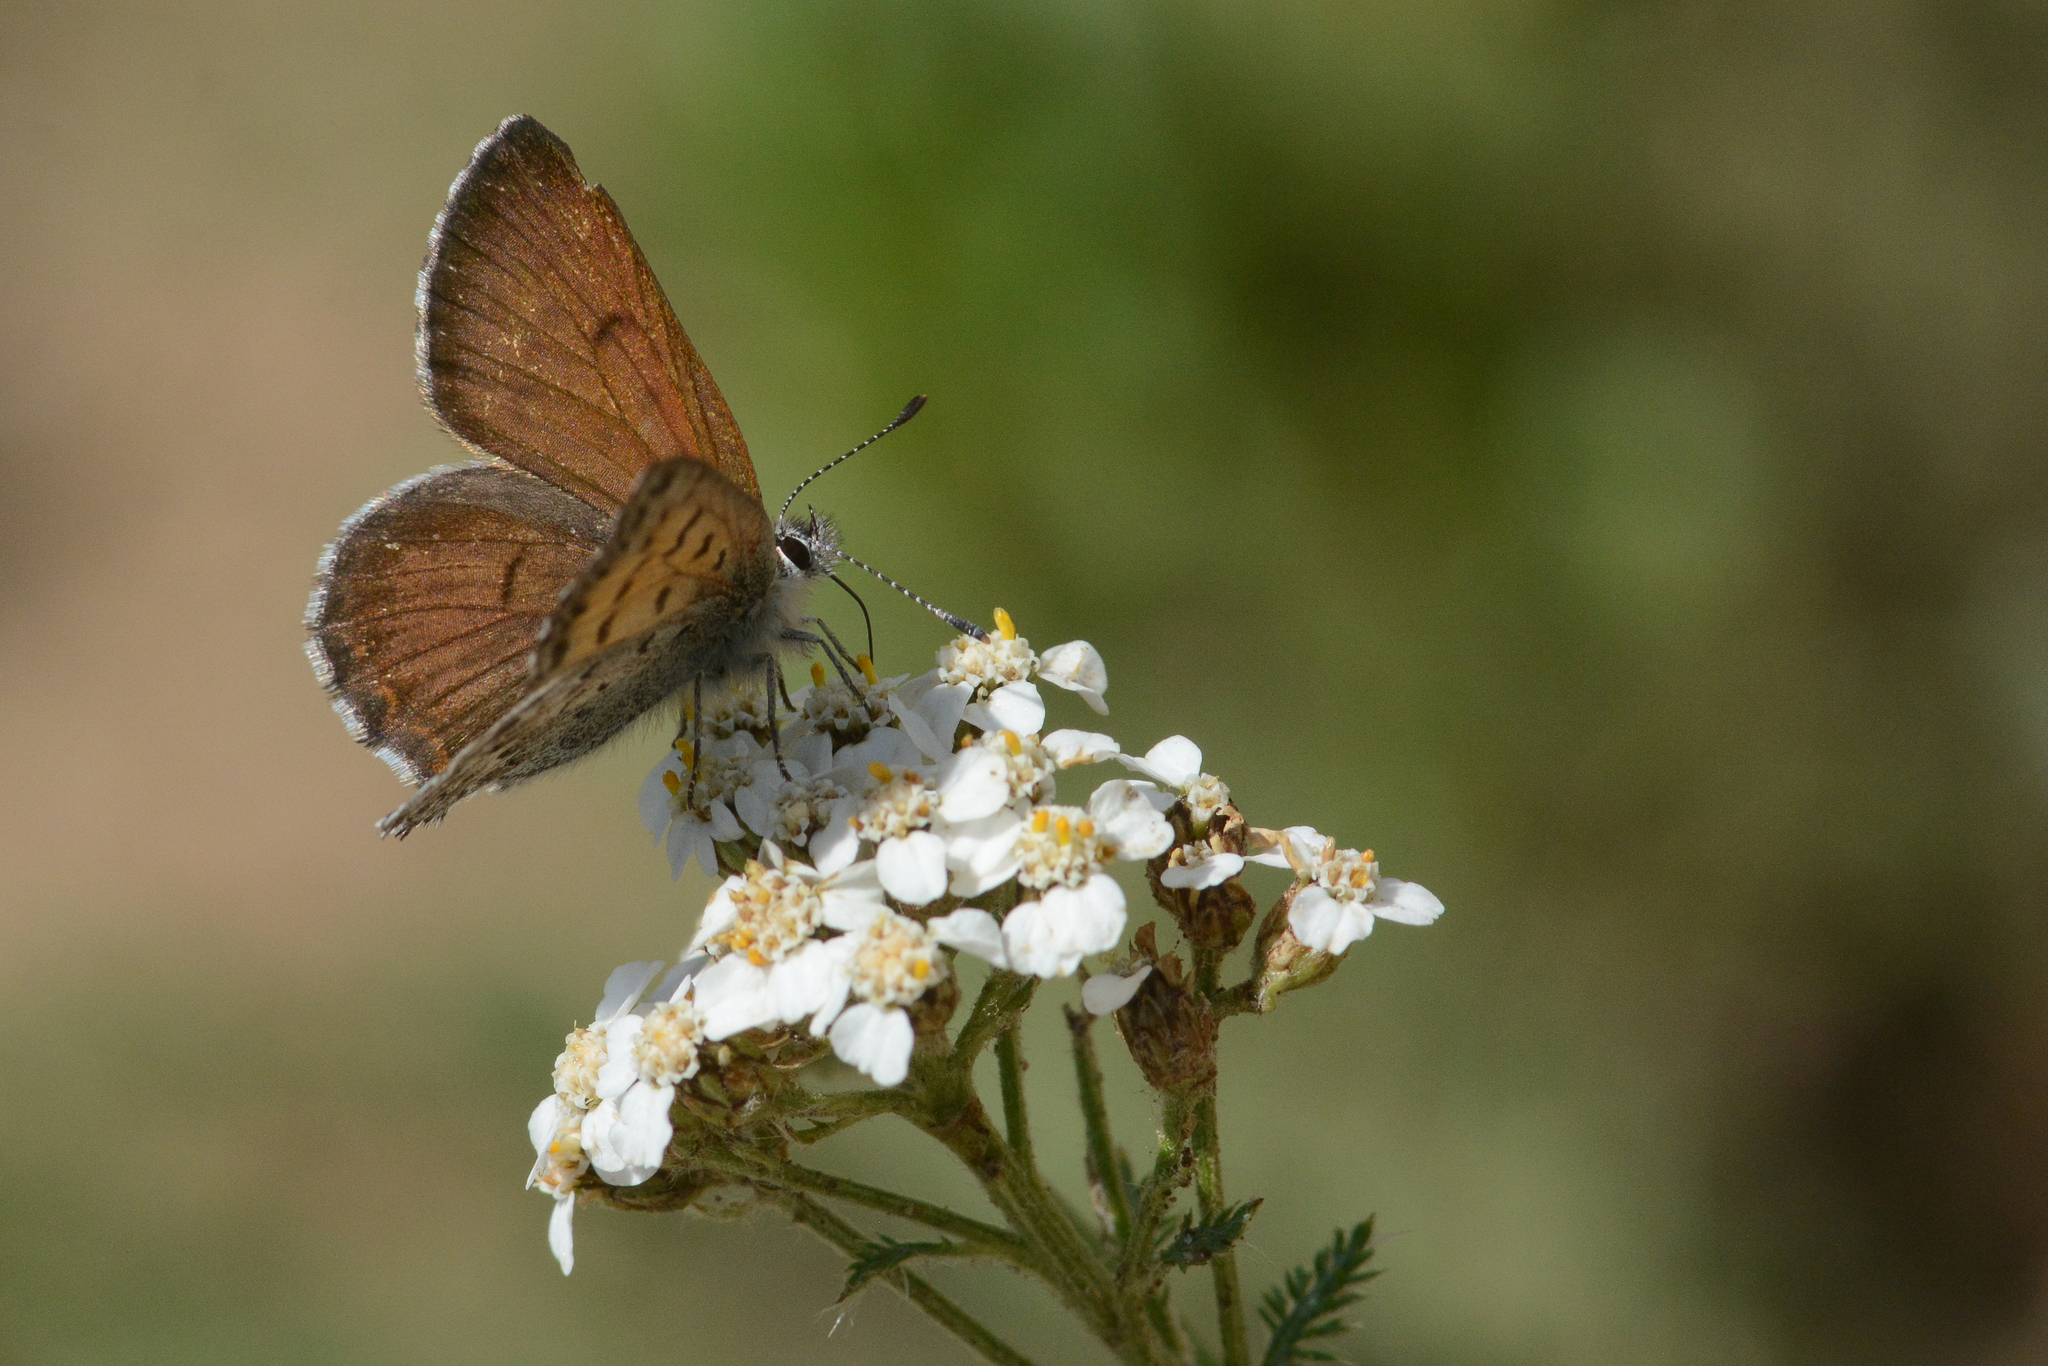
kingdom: Animalia
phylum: Arthropoda
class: Insecta
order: Lepidoptera
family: Lycaenidae
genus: Tharsalea
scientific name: Tharsalea mariposa
